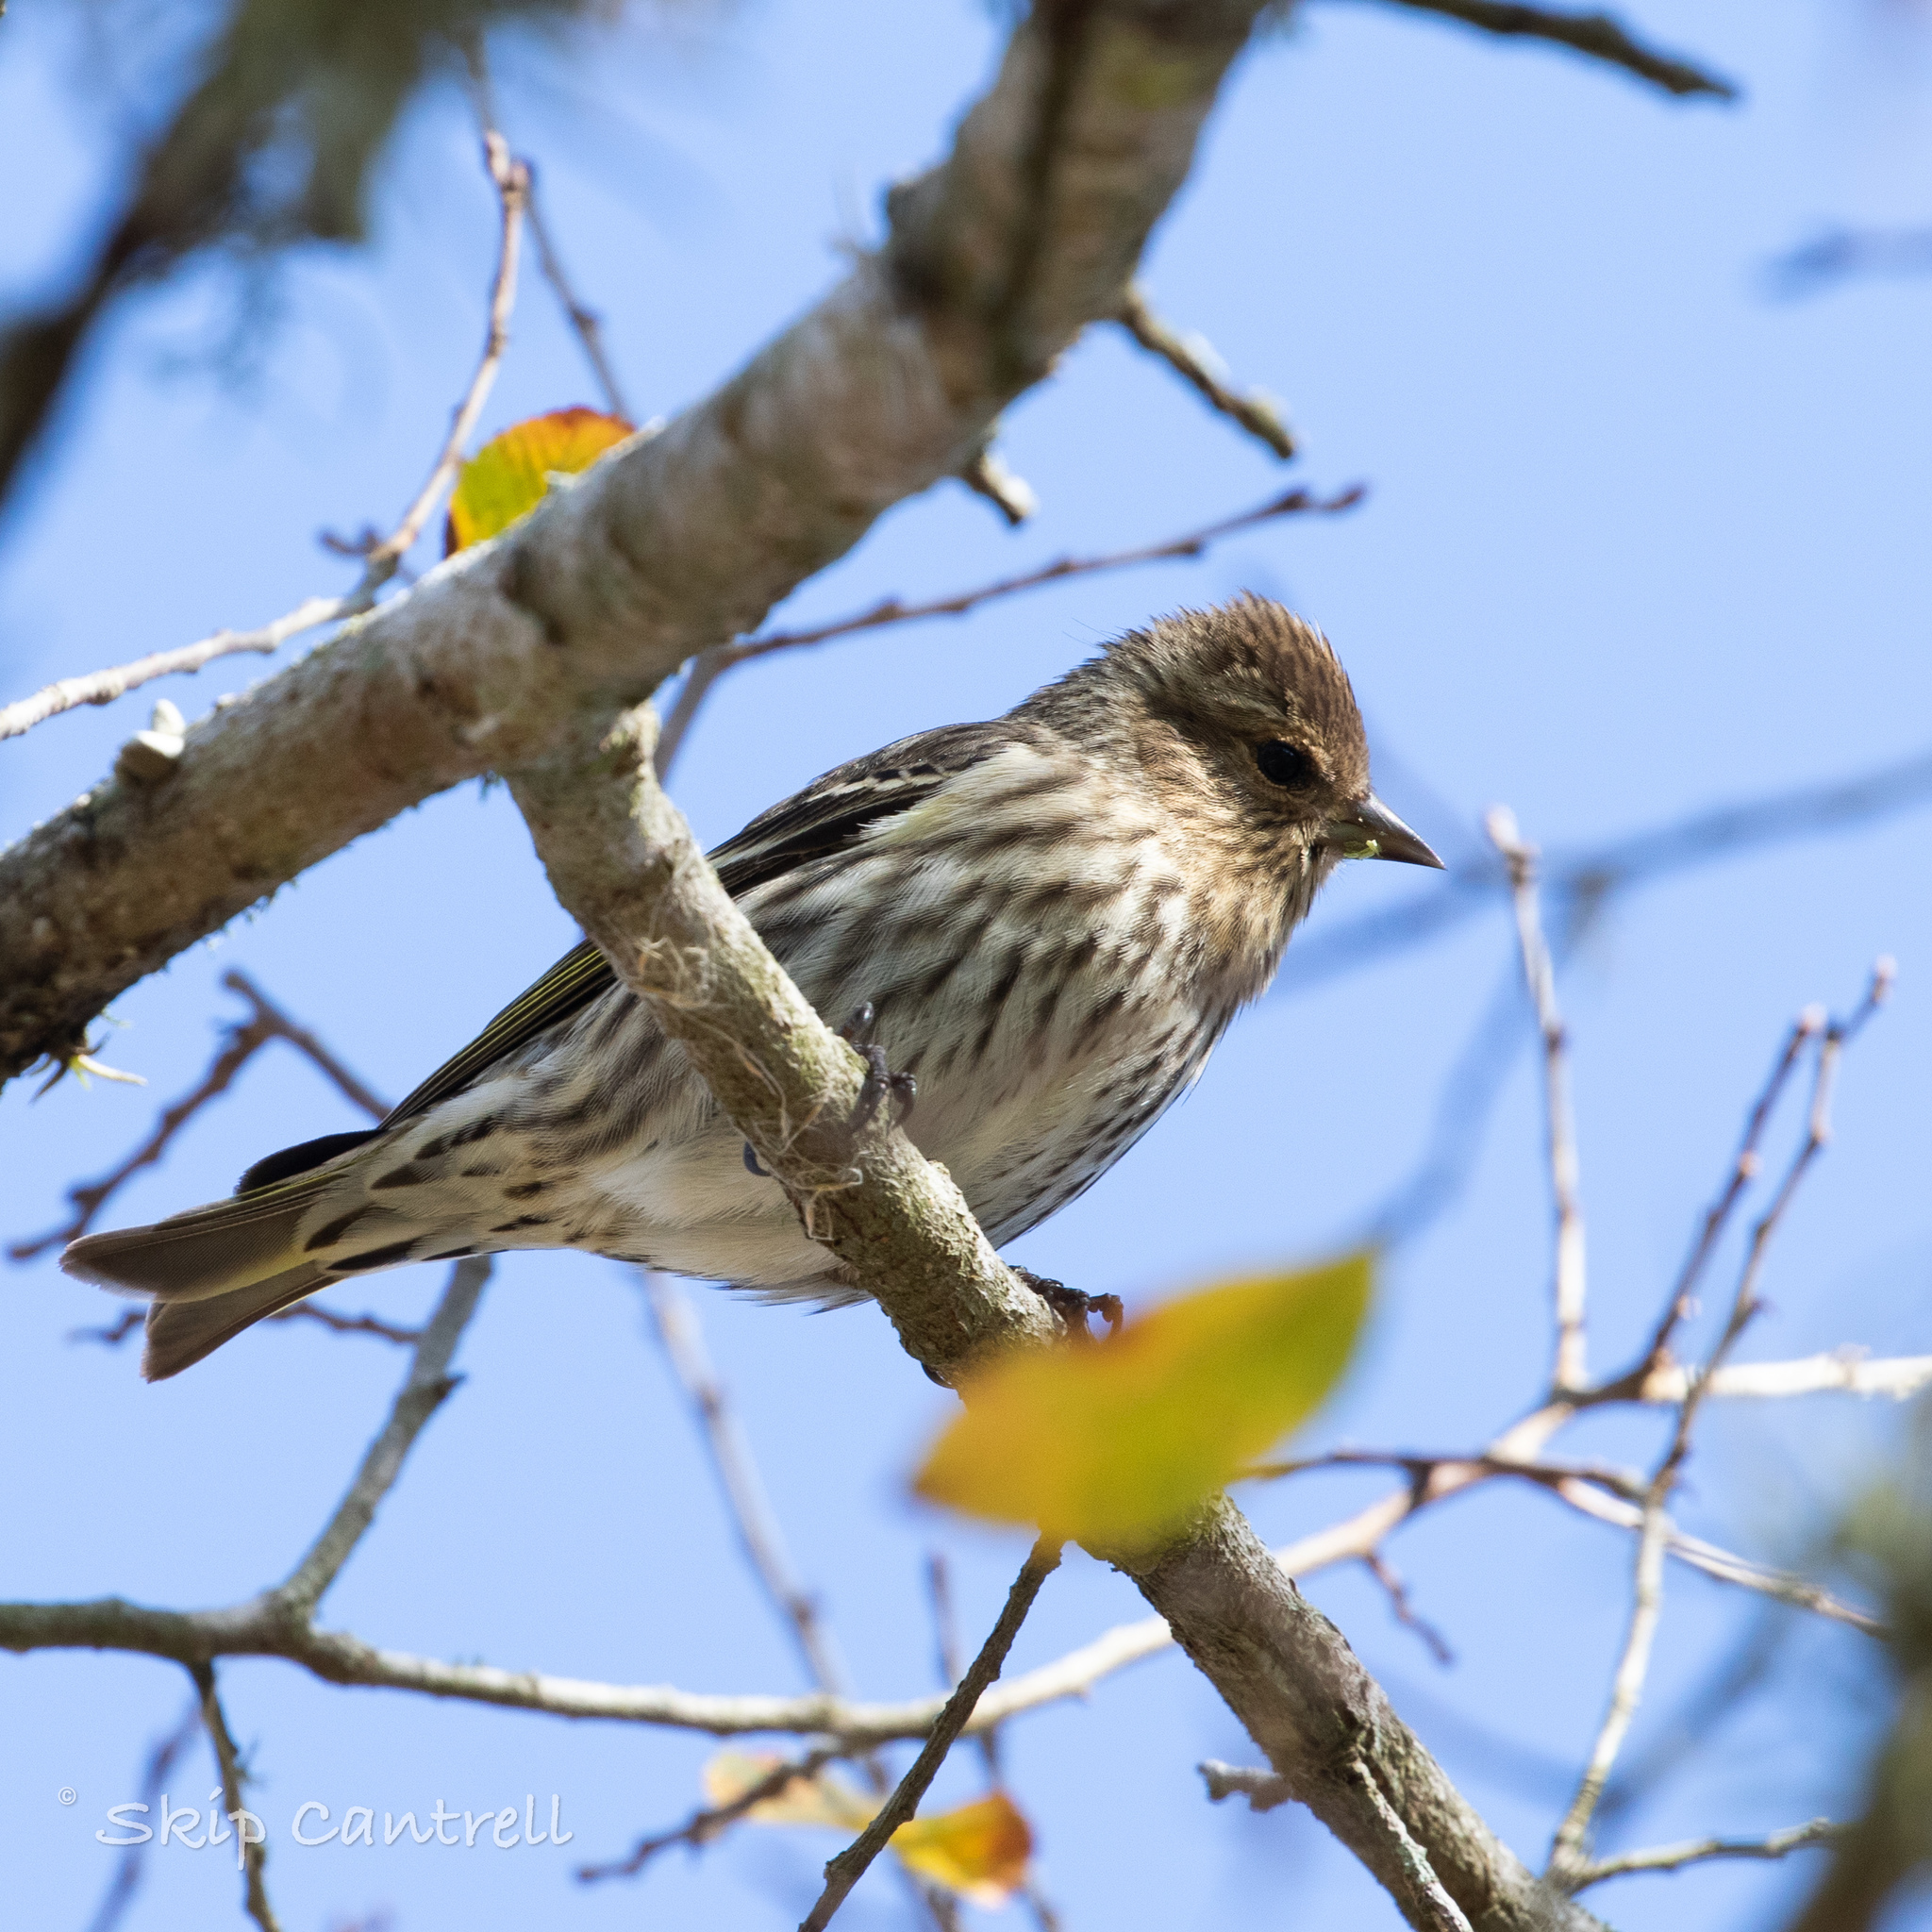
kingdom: Animalia
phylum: Chordata
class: Aves
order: Passeriformes
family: Fringillidae
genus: Spinus
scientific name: Spinus pinus
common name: Pine siskin
